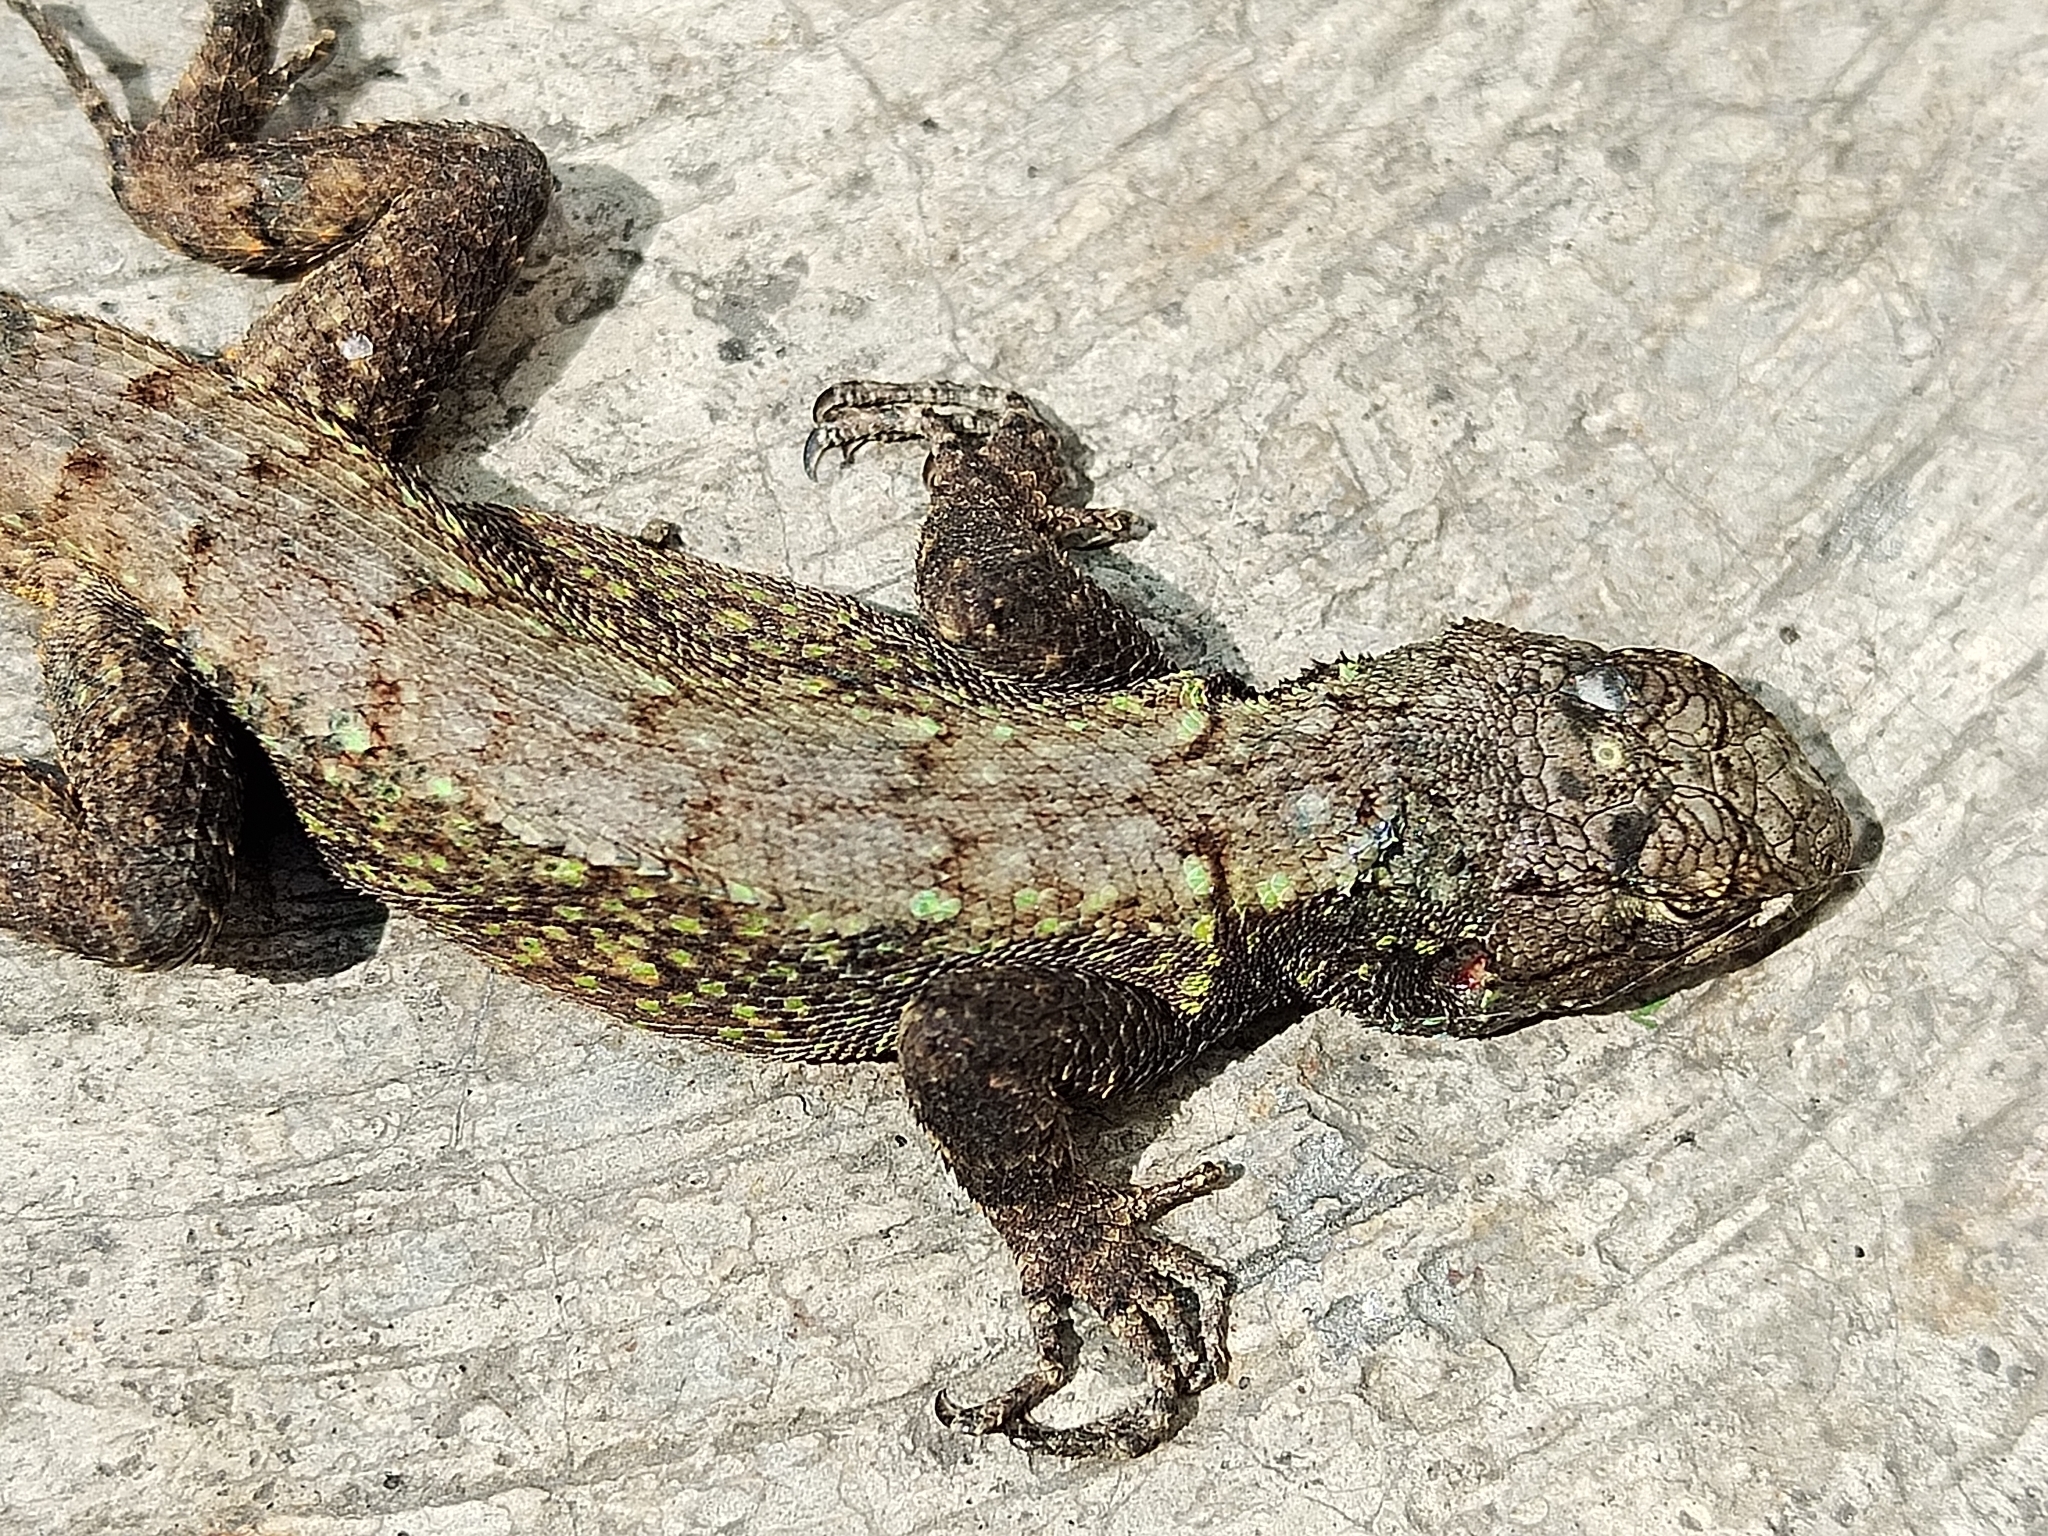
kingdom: Animalia
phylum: Chordata
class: Squamata
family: Phrynosomatidae
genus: Sceloporus
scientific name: Sceloporus grammicus
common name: Mesquite lizard
